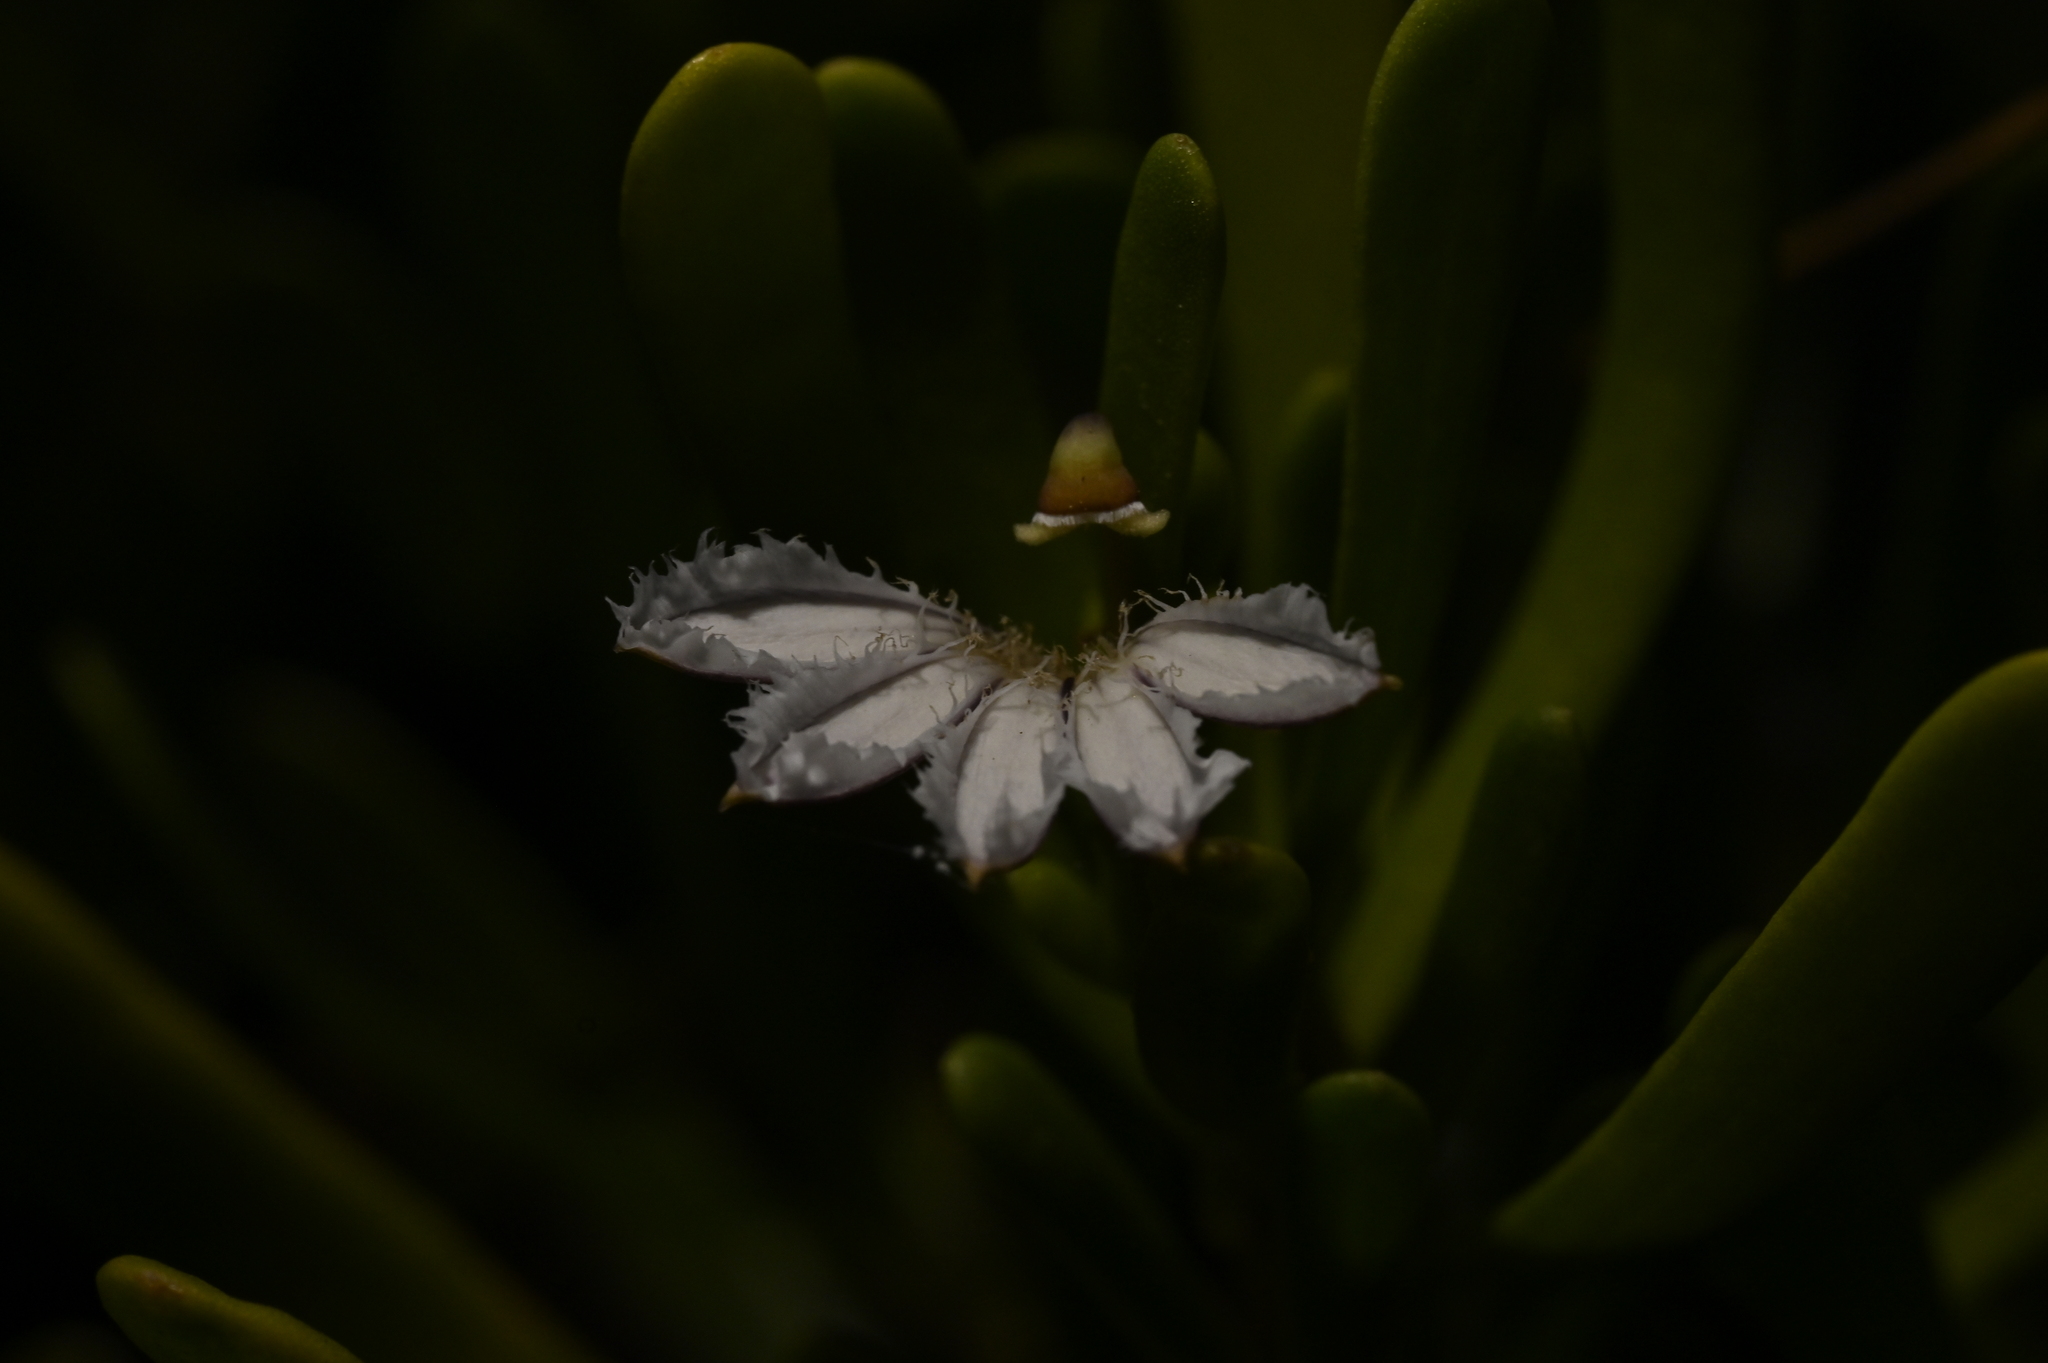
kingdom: Plantae
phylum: Tracheophyta
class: Magnoliopsida
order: Asterales
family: Goodeniaceae
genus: Scaevola
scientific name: Scaevola hainanensis
